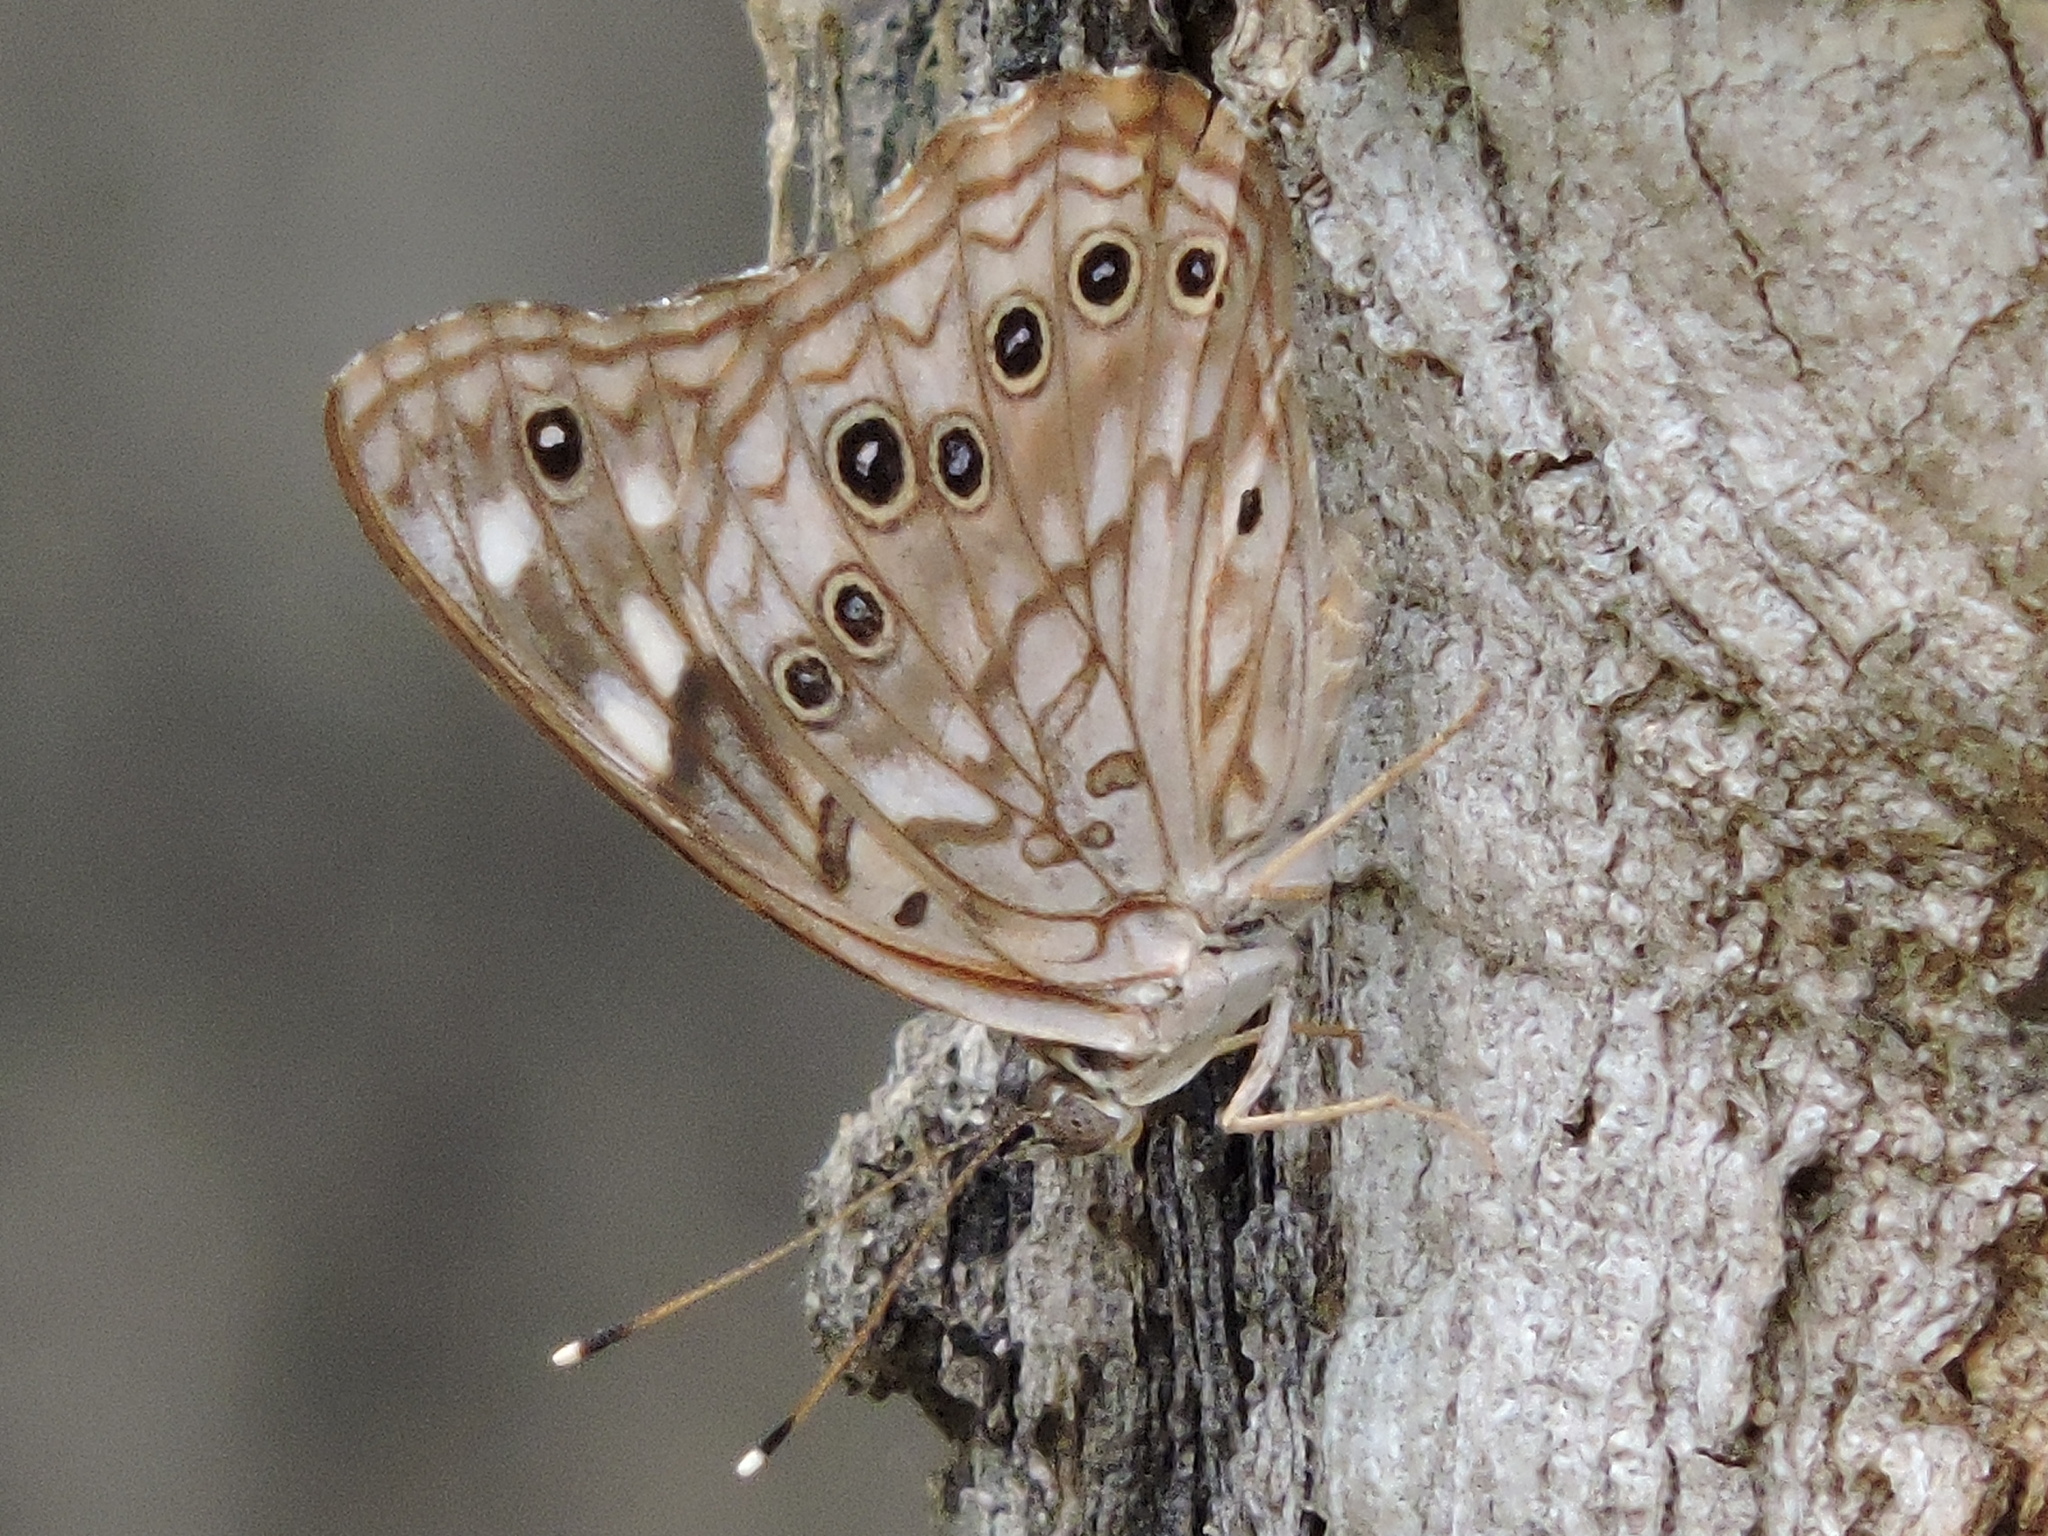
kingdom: Animalia
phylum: Arthropoda
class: Insecta
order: Lepidoptera
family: Nymphalidae
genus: Asterocampa
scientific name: Asterocampa celtis
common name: Hackberry emperor
